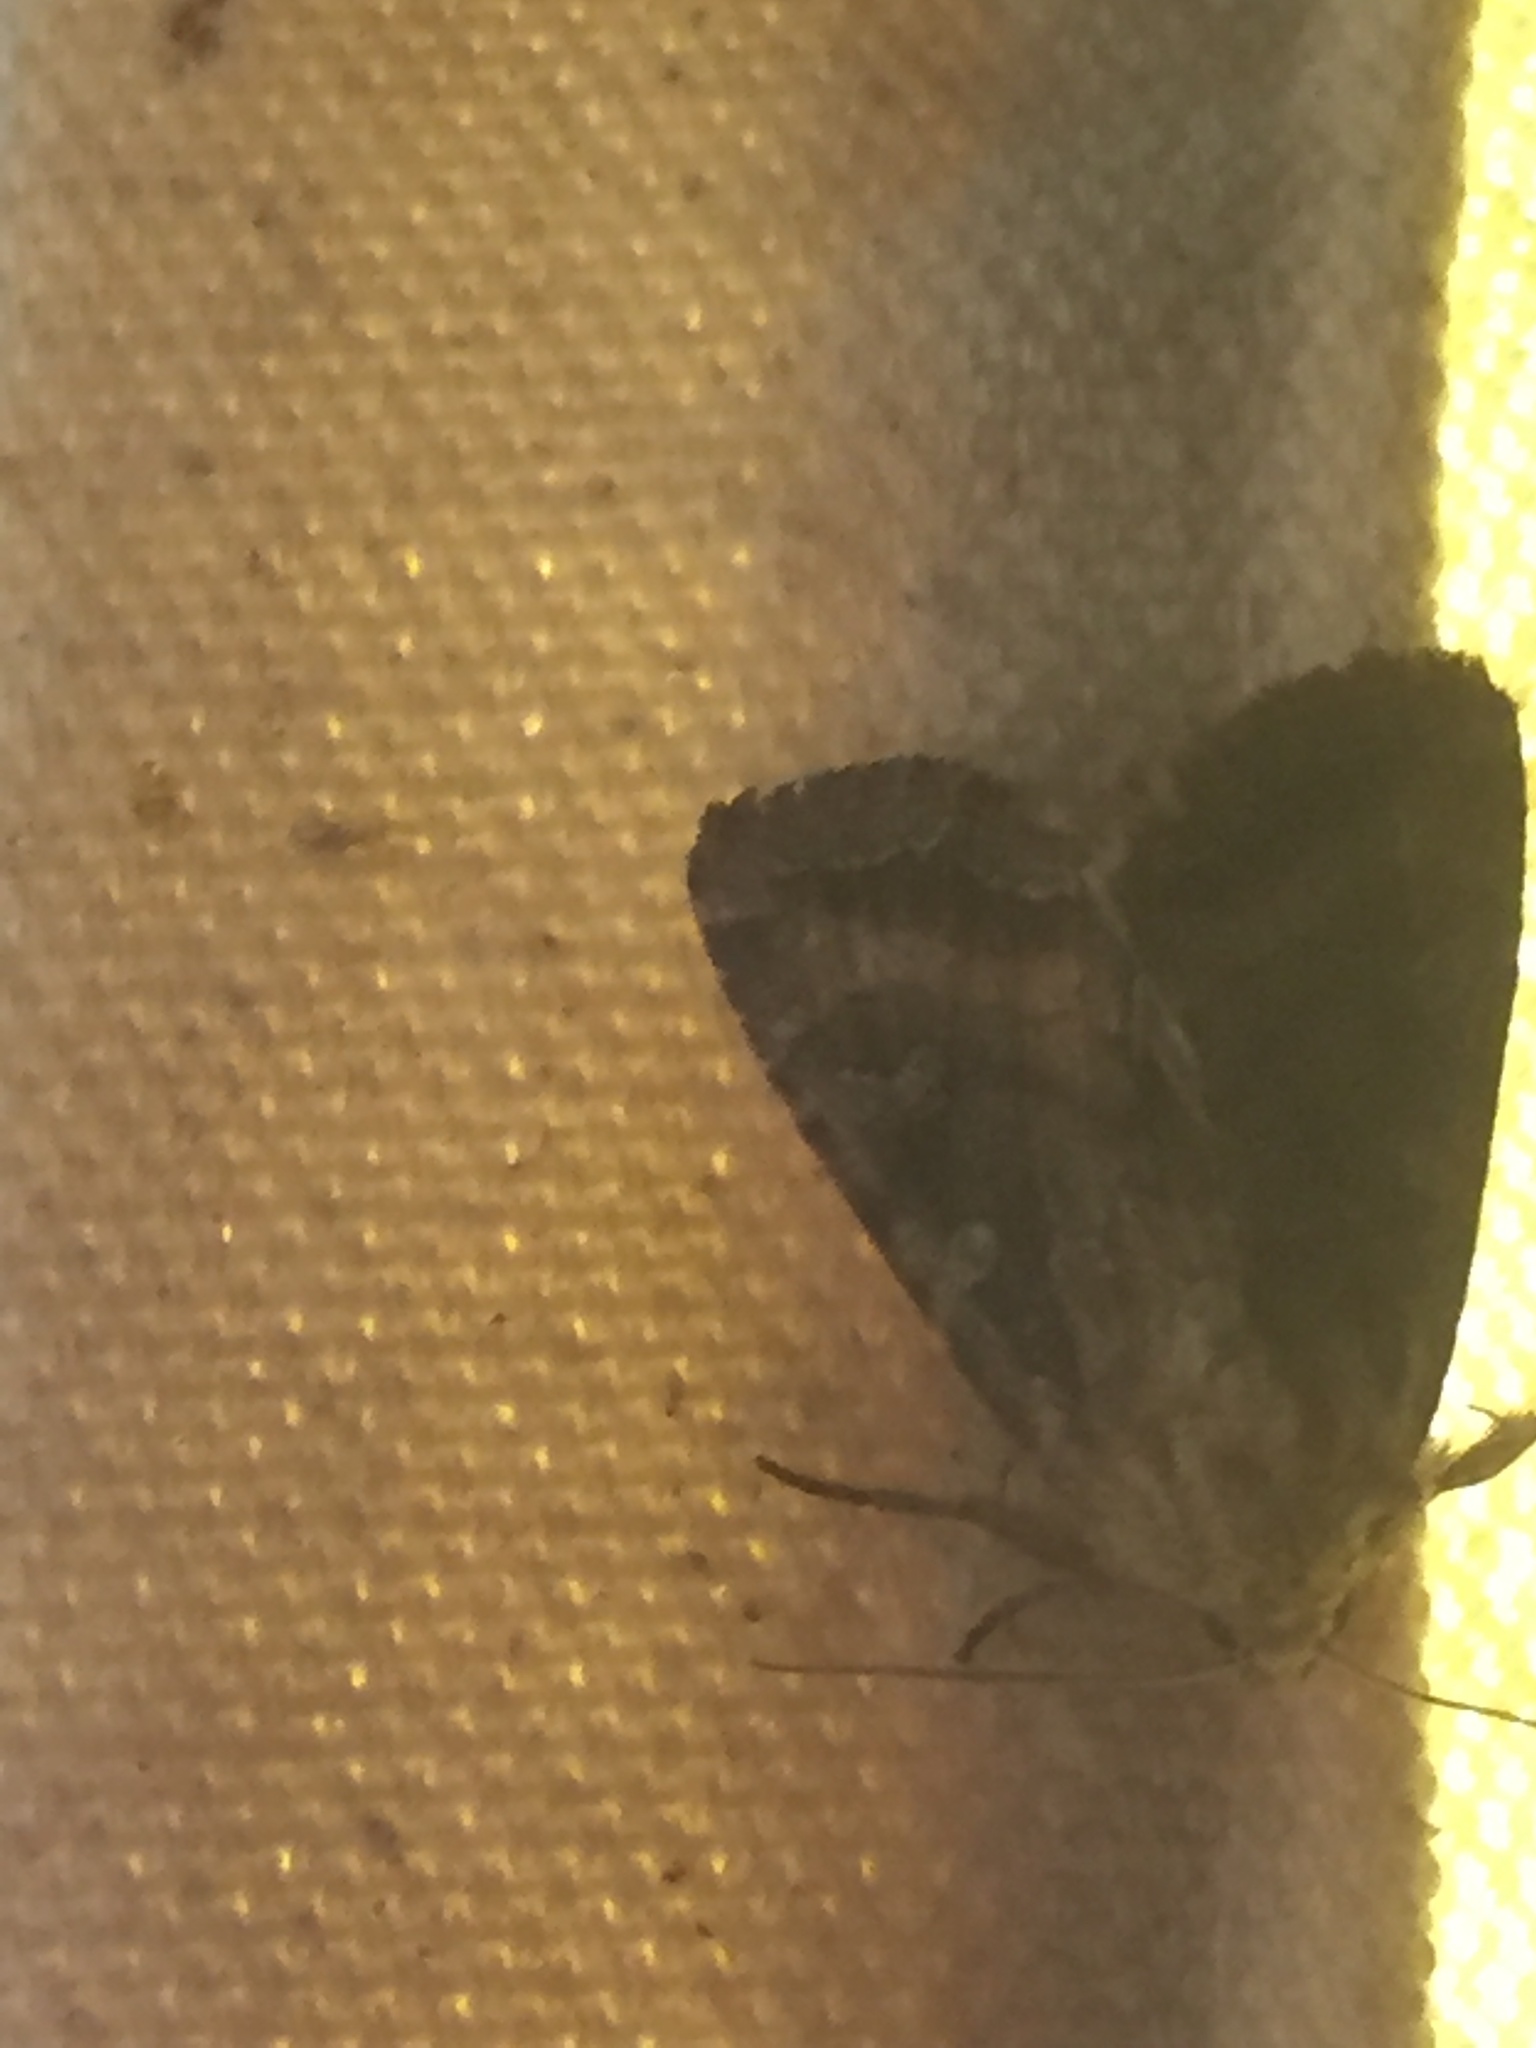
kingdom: Animalia
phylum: Arthropoda
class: Insecta
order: Lepidoptera
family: Noctuidae
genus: Lacanobia
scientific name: Lacanobia splendens
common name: Splendid brocade
